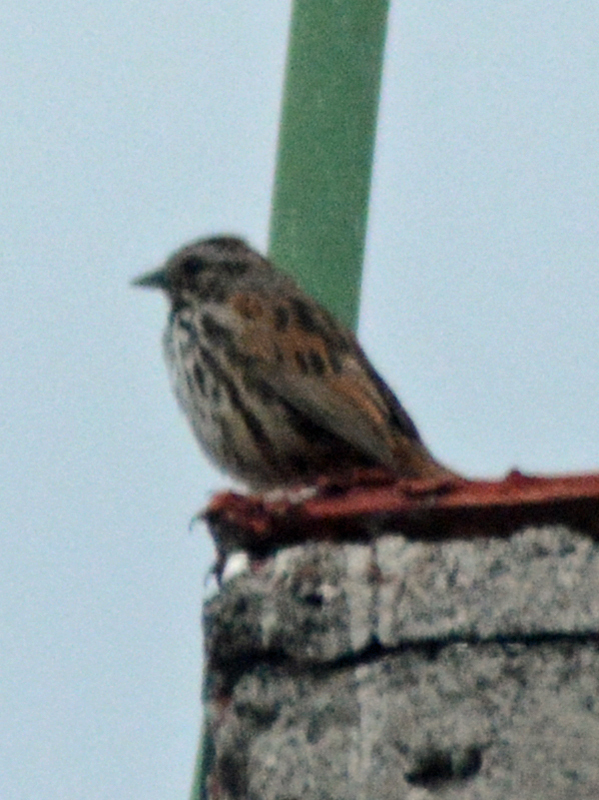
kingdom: Animalia
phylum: Chordata
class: Aves
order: Passeriformes
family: Passerellidae
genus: Melospiza
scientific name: Melospiza melodia
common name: Song sparrow
